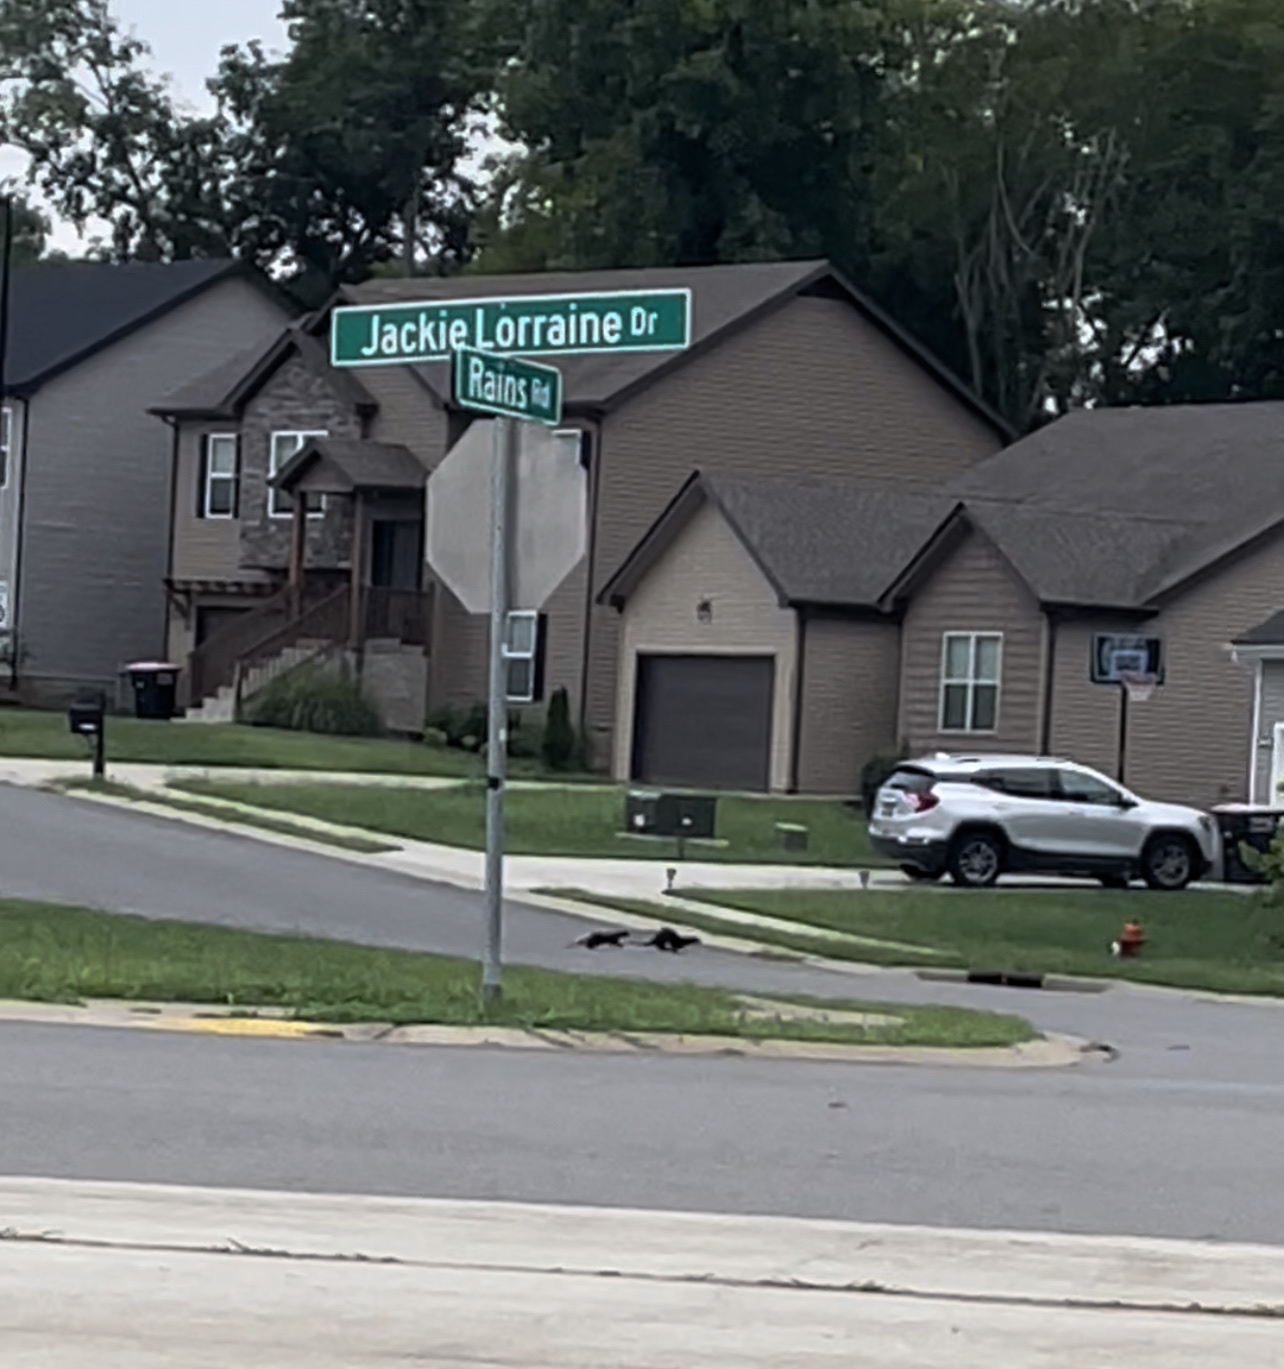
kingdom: Animalia
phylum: Chordata
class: Mammalia
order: Carnivora
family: Mustelidae
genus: Lontra
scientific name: Lontra canadensis
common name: North american river otter
